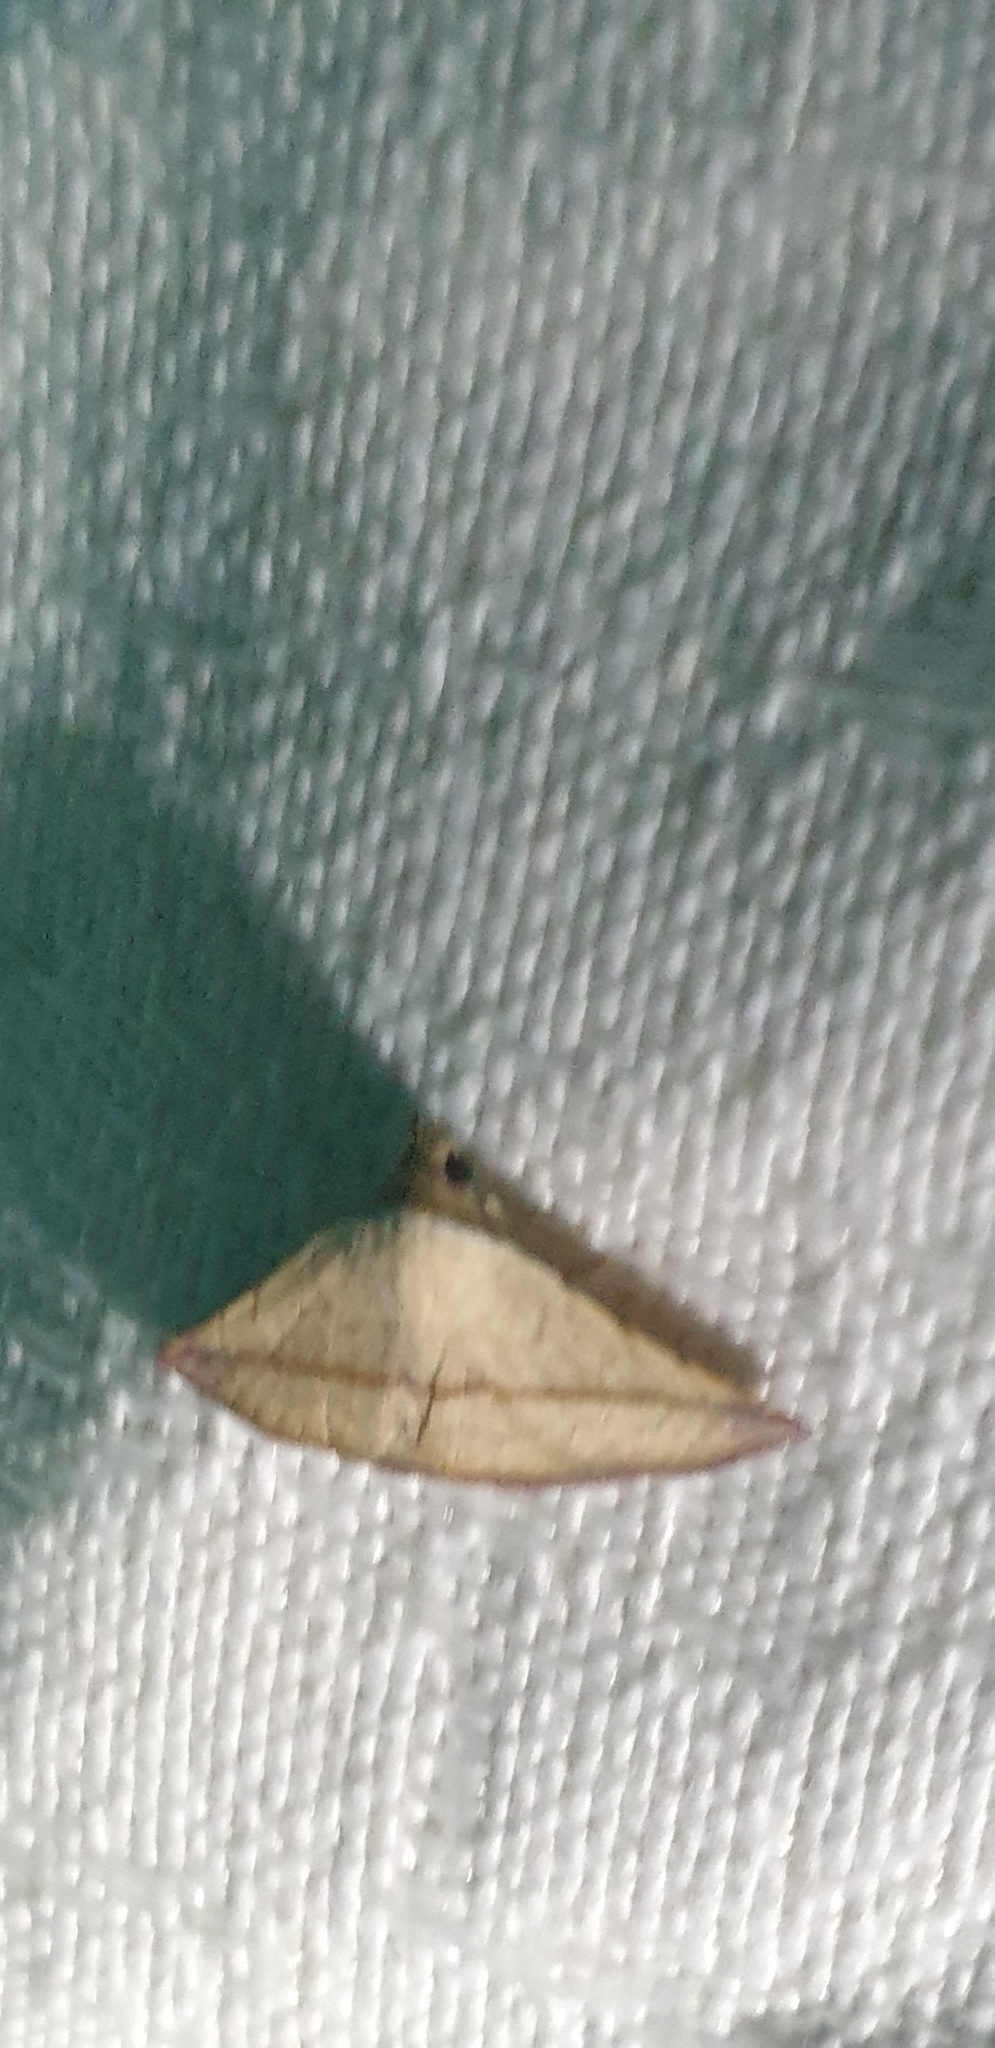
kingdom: Animalia
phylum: Arthropoda
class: Insecta
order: Lepidoptera
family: Noctuidae
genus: Eublemma
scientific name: Eublemma perversicolor
